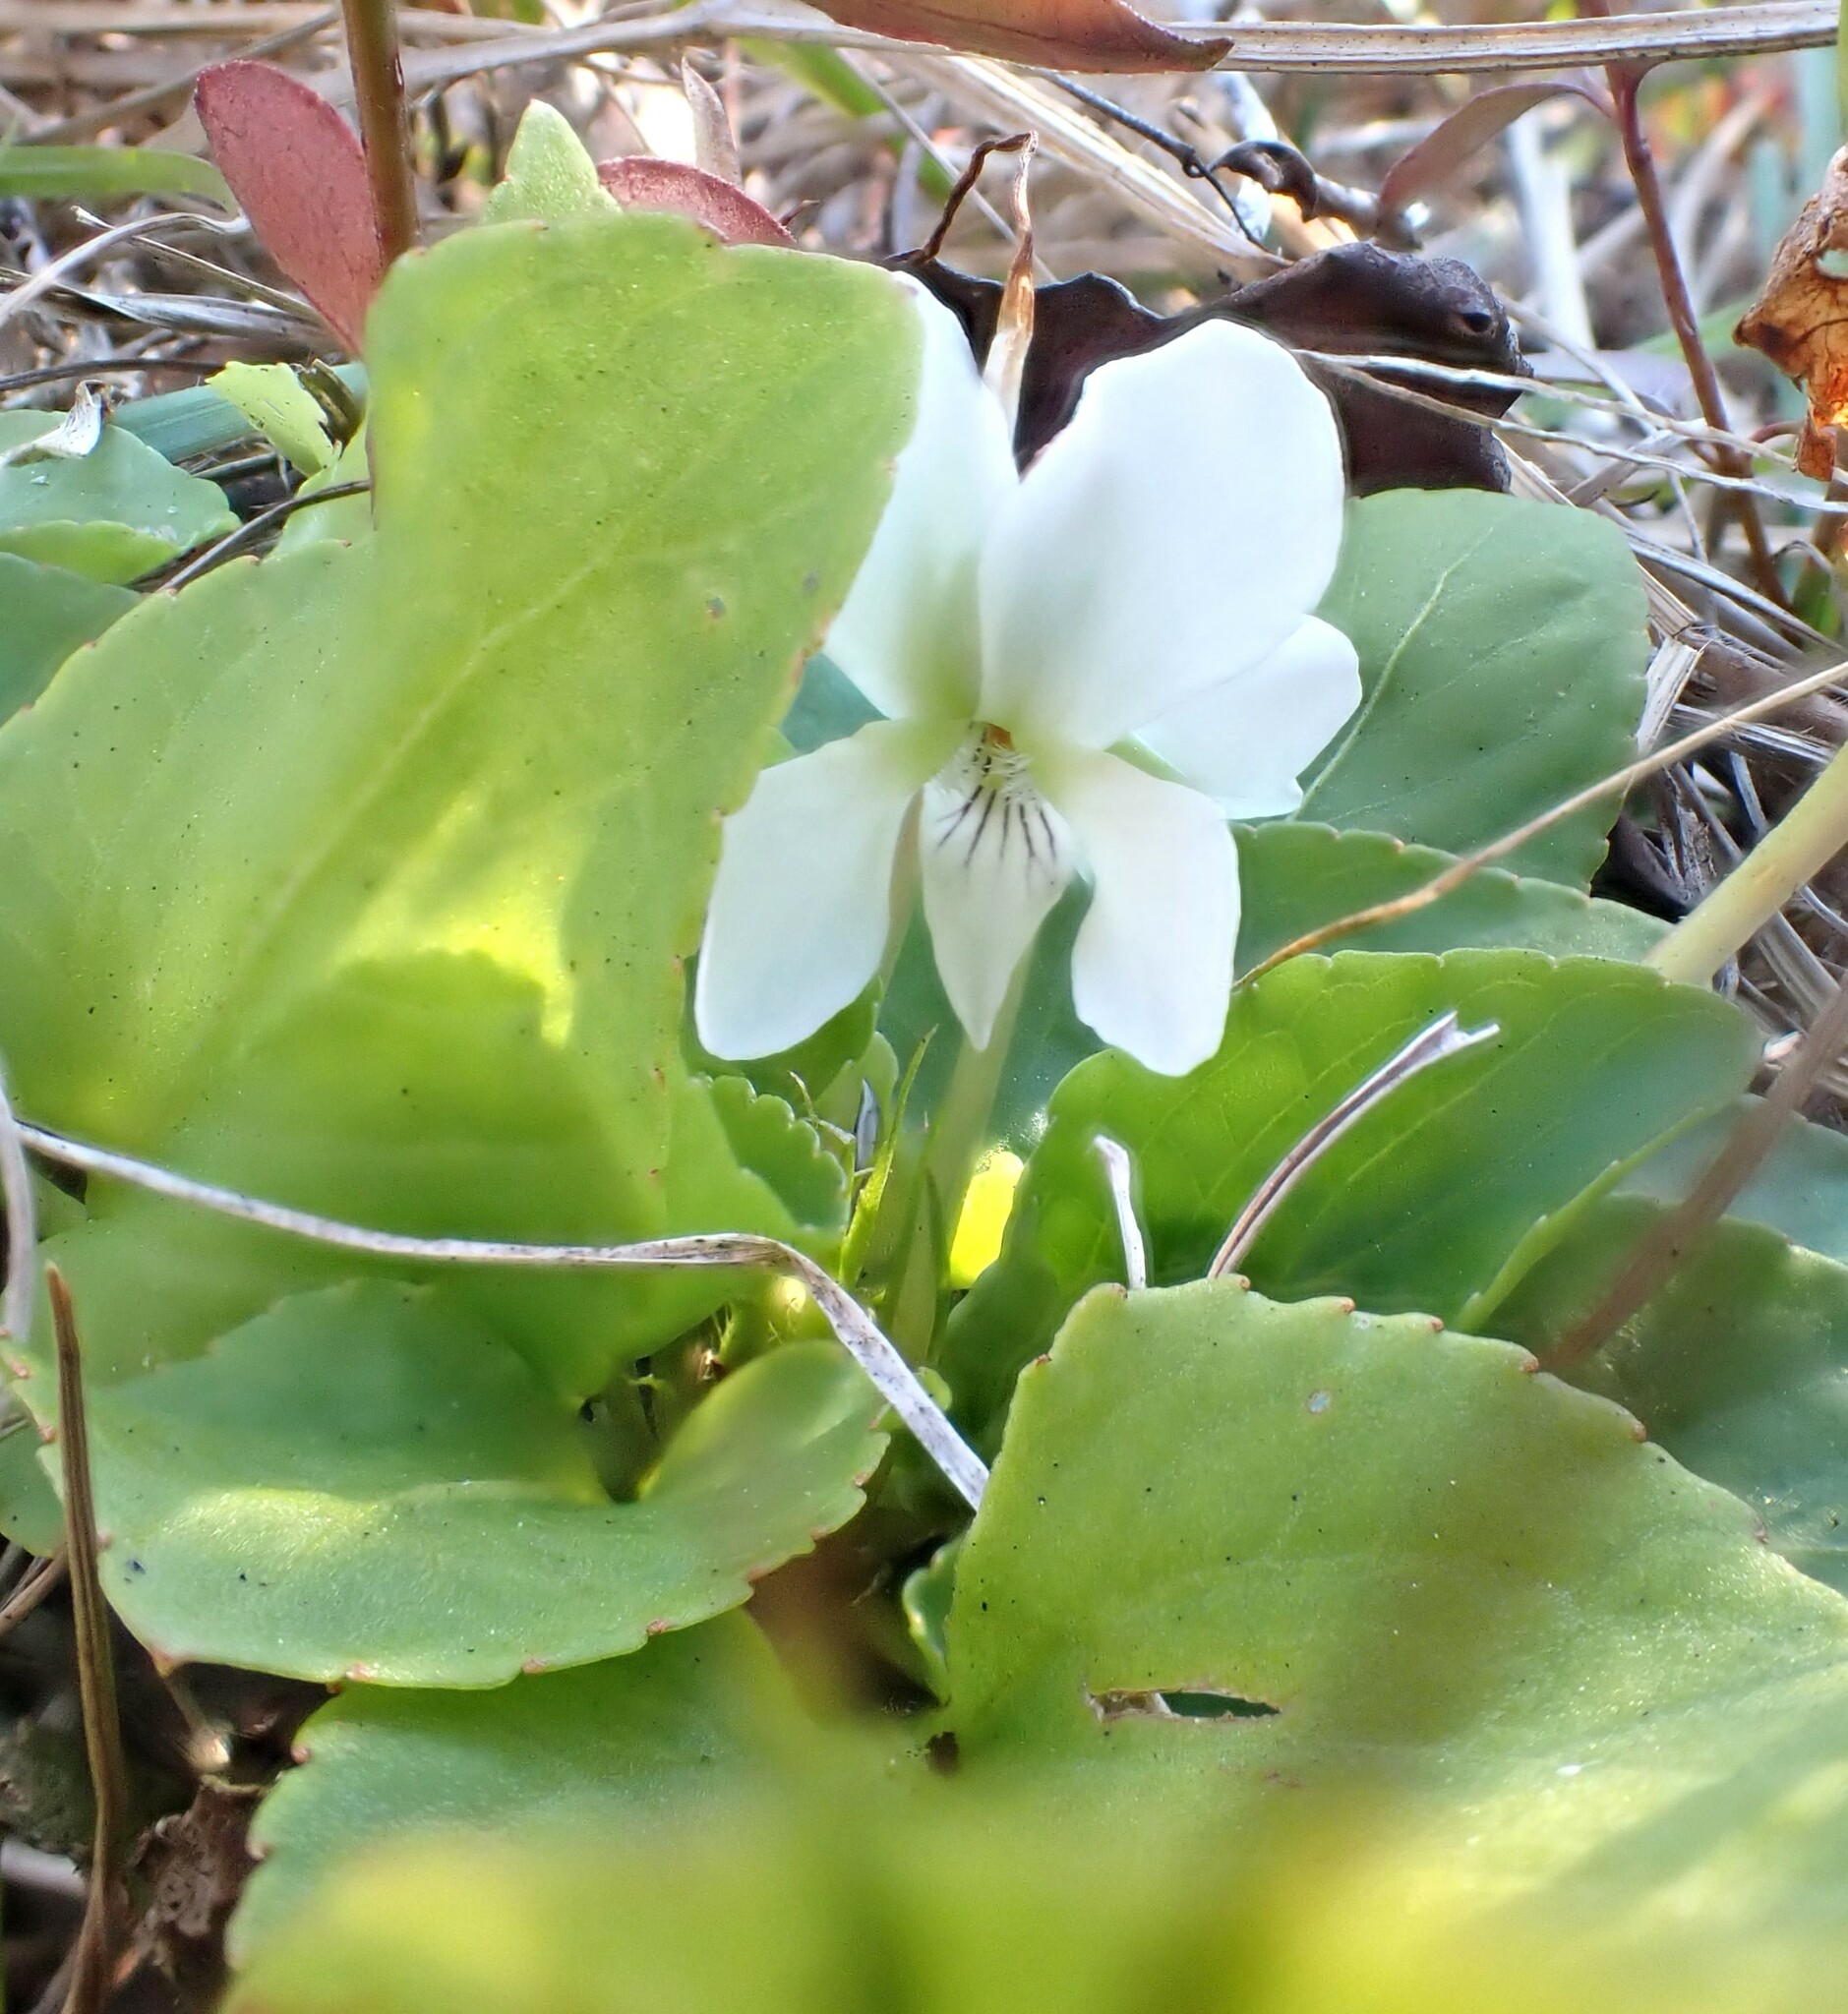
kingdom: Plantae
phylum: Tracheophyta
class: Magnoliopsida
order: Malpighiales
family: Violaceae
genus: Viola
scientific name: Viola primulifolia
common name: Primrose-leaf violet
